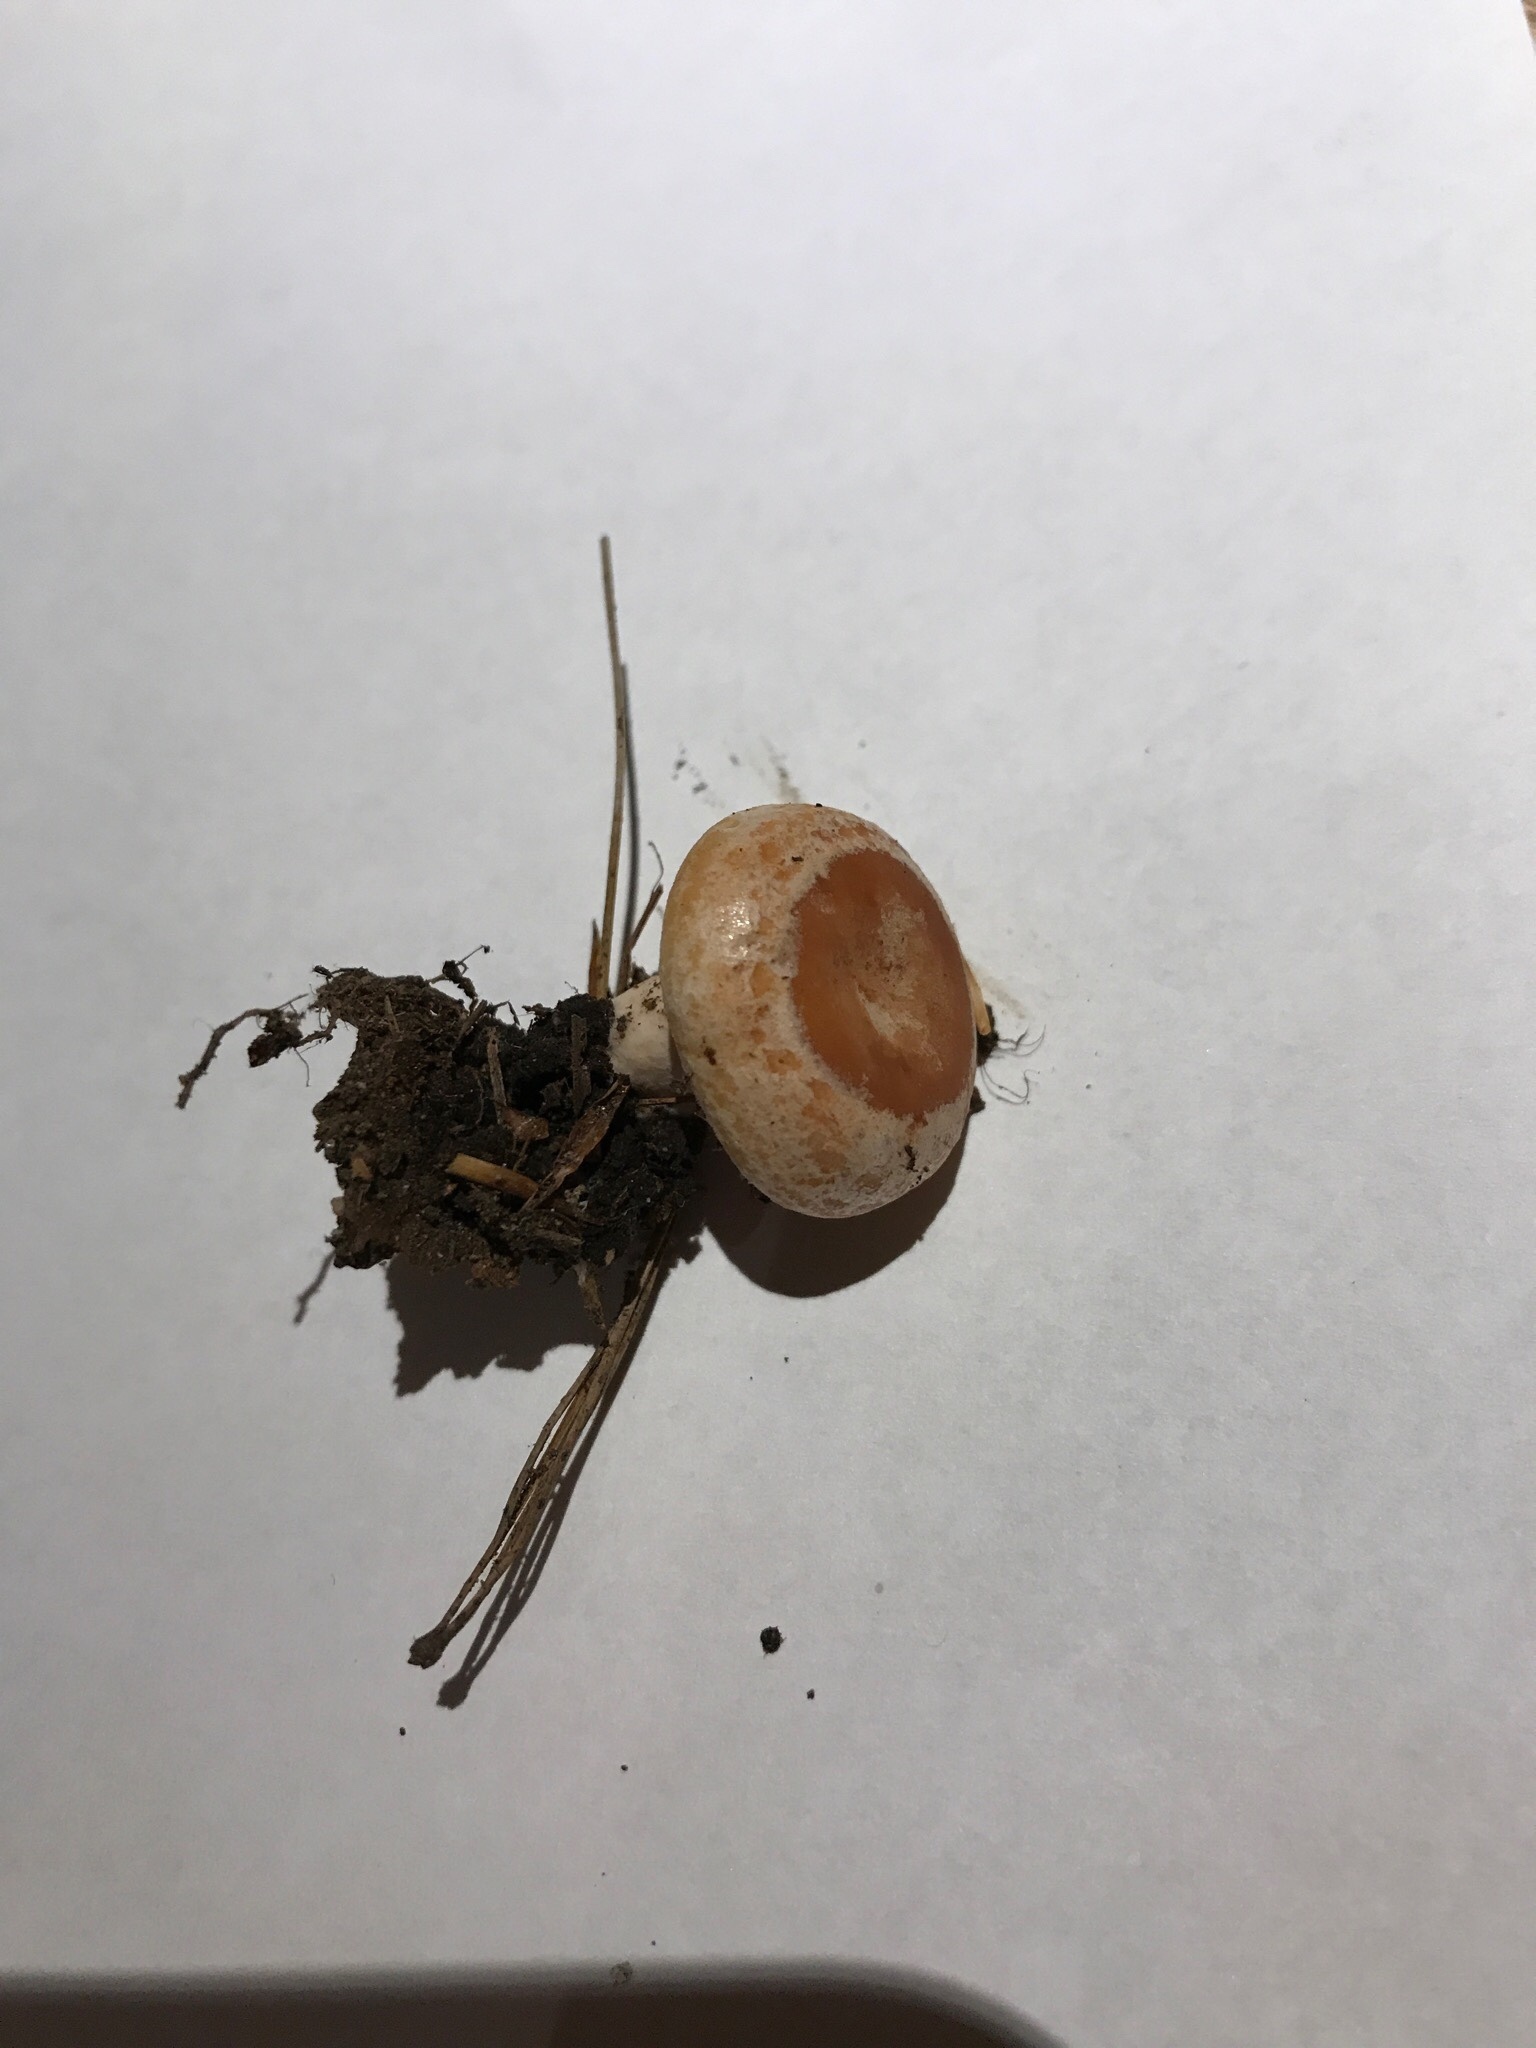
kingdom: Fungi
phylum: Basidiomycota
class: Agaricomycetes
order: Russulales
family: Russulaceae
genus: Lactarius
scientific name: Lactarius vinaceorufescens
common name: Yellow-latex milkcap
